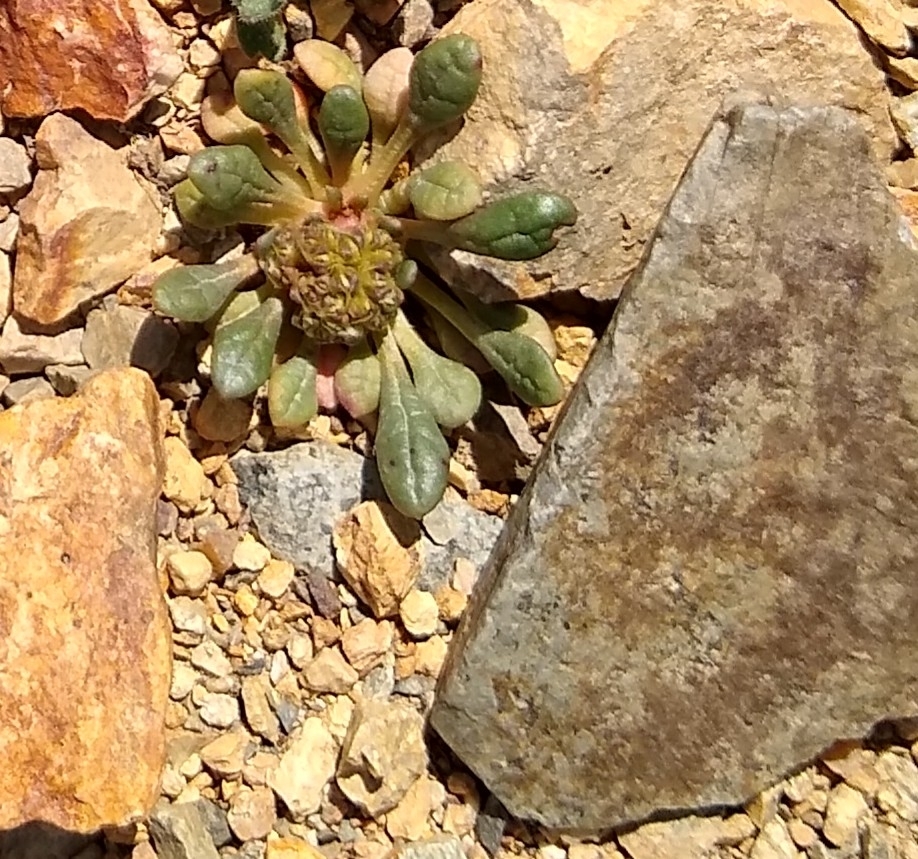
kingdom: Plantae
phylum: Tracheophyta
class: Magnoliopsida
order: Caryophyllales
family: Montiaceae
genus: Calyptridium
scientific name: Calyptridium umbellatum
